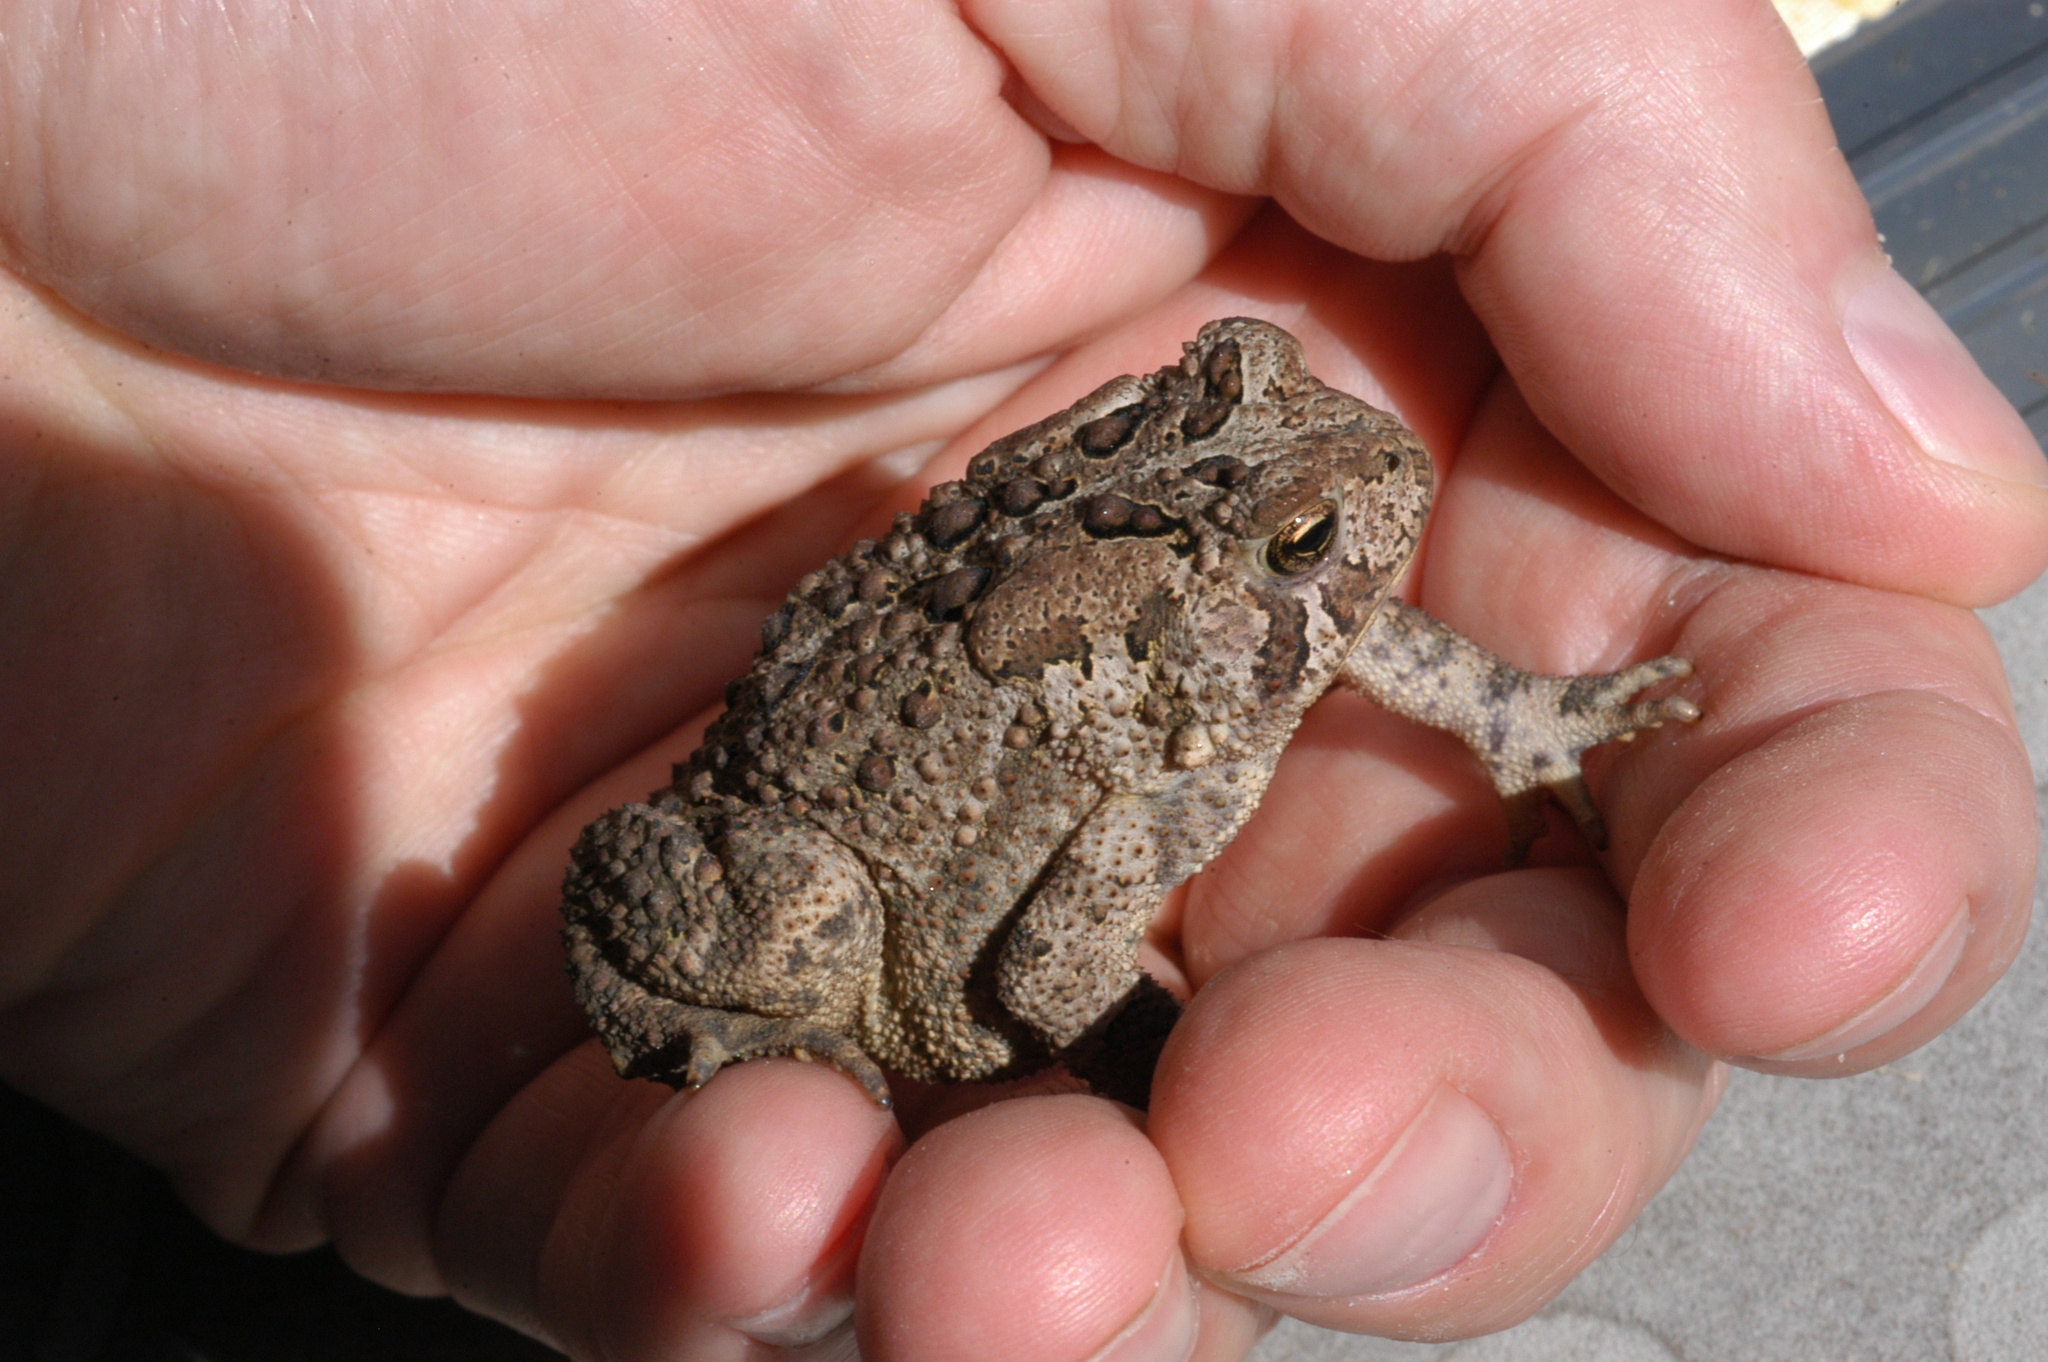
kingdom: Animalia
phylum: Chordata
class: Amphibia
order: Anura
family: Bufonidae
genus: Anaxyrus
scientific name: Anaxyrus americanus
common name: American toad
